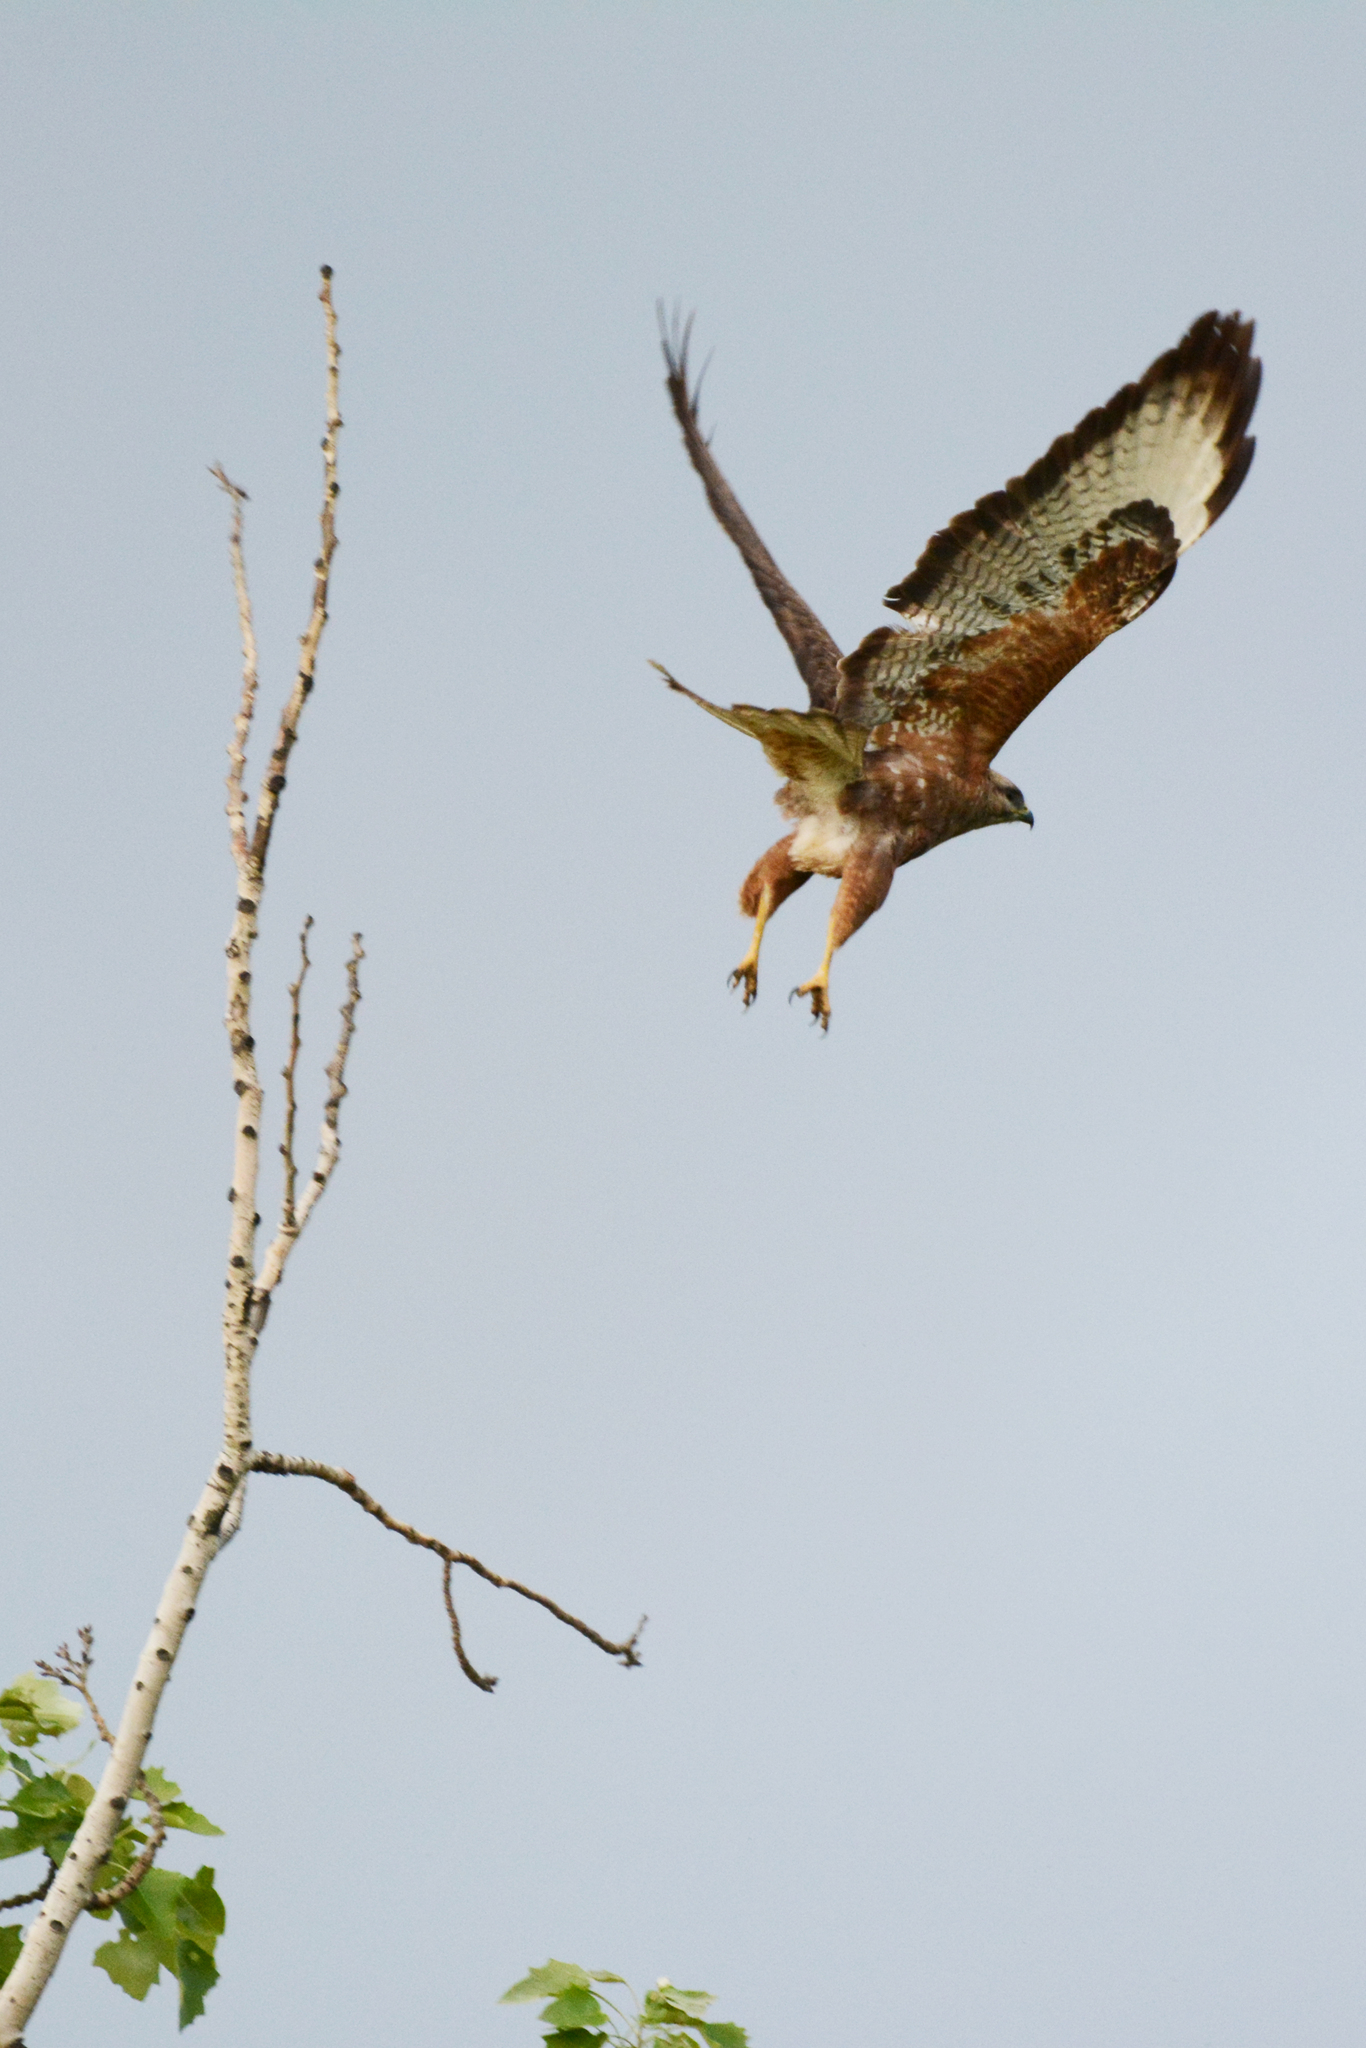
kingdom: Animalia
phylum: Chordata
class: Aves
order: Accipitriformes
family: Accipitridae
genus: Buteo
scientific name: Buteo buteo
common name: Common buzzard
